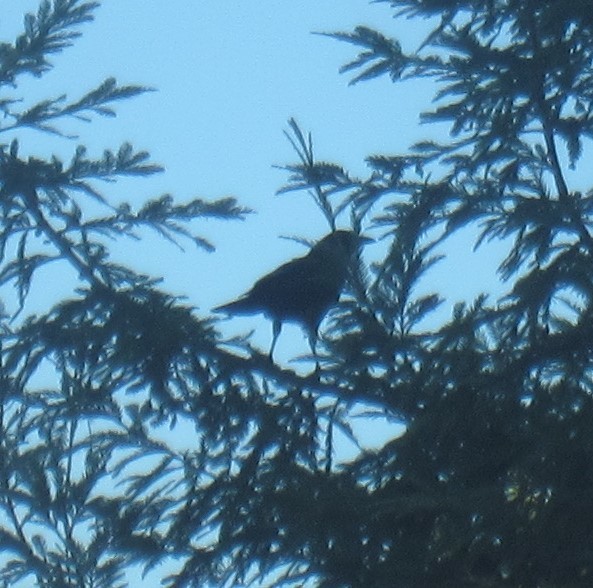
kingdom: Animalia
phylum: Chordata
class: Aves
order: Passeriformes
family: Corvidae
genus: Corvus
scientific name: Corvus brachyrhynchos
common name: American crow
